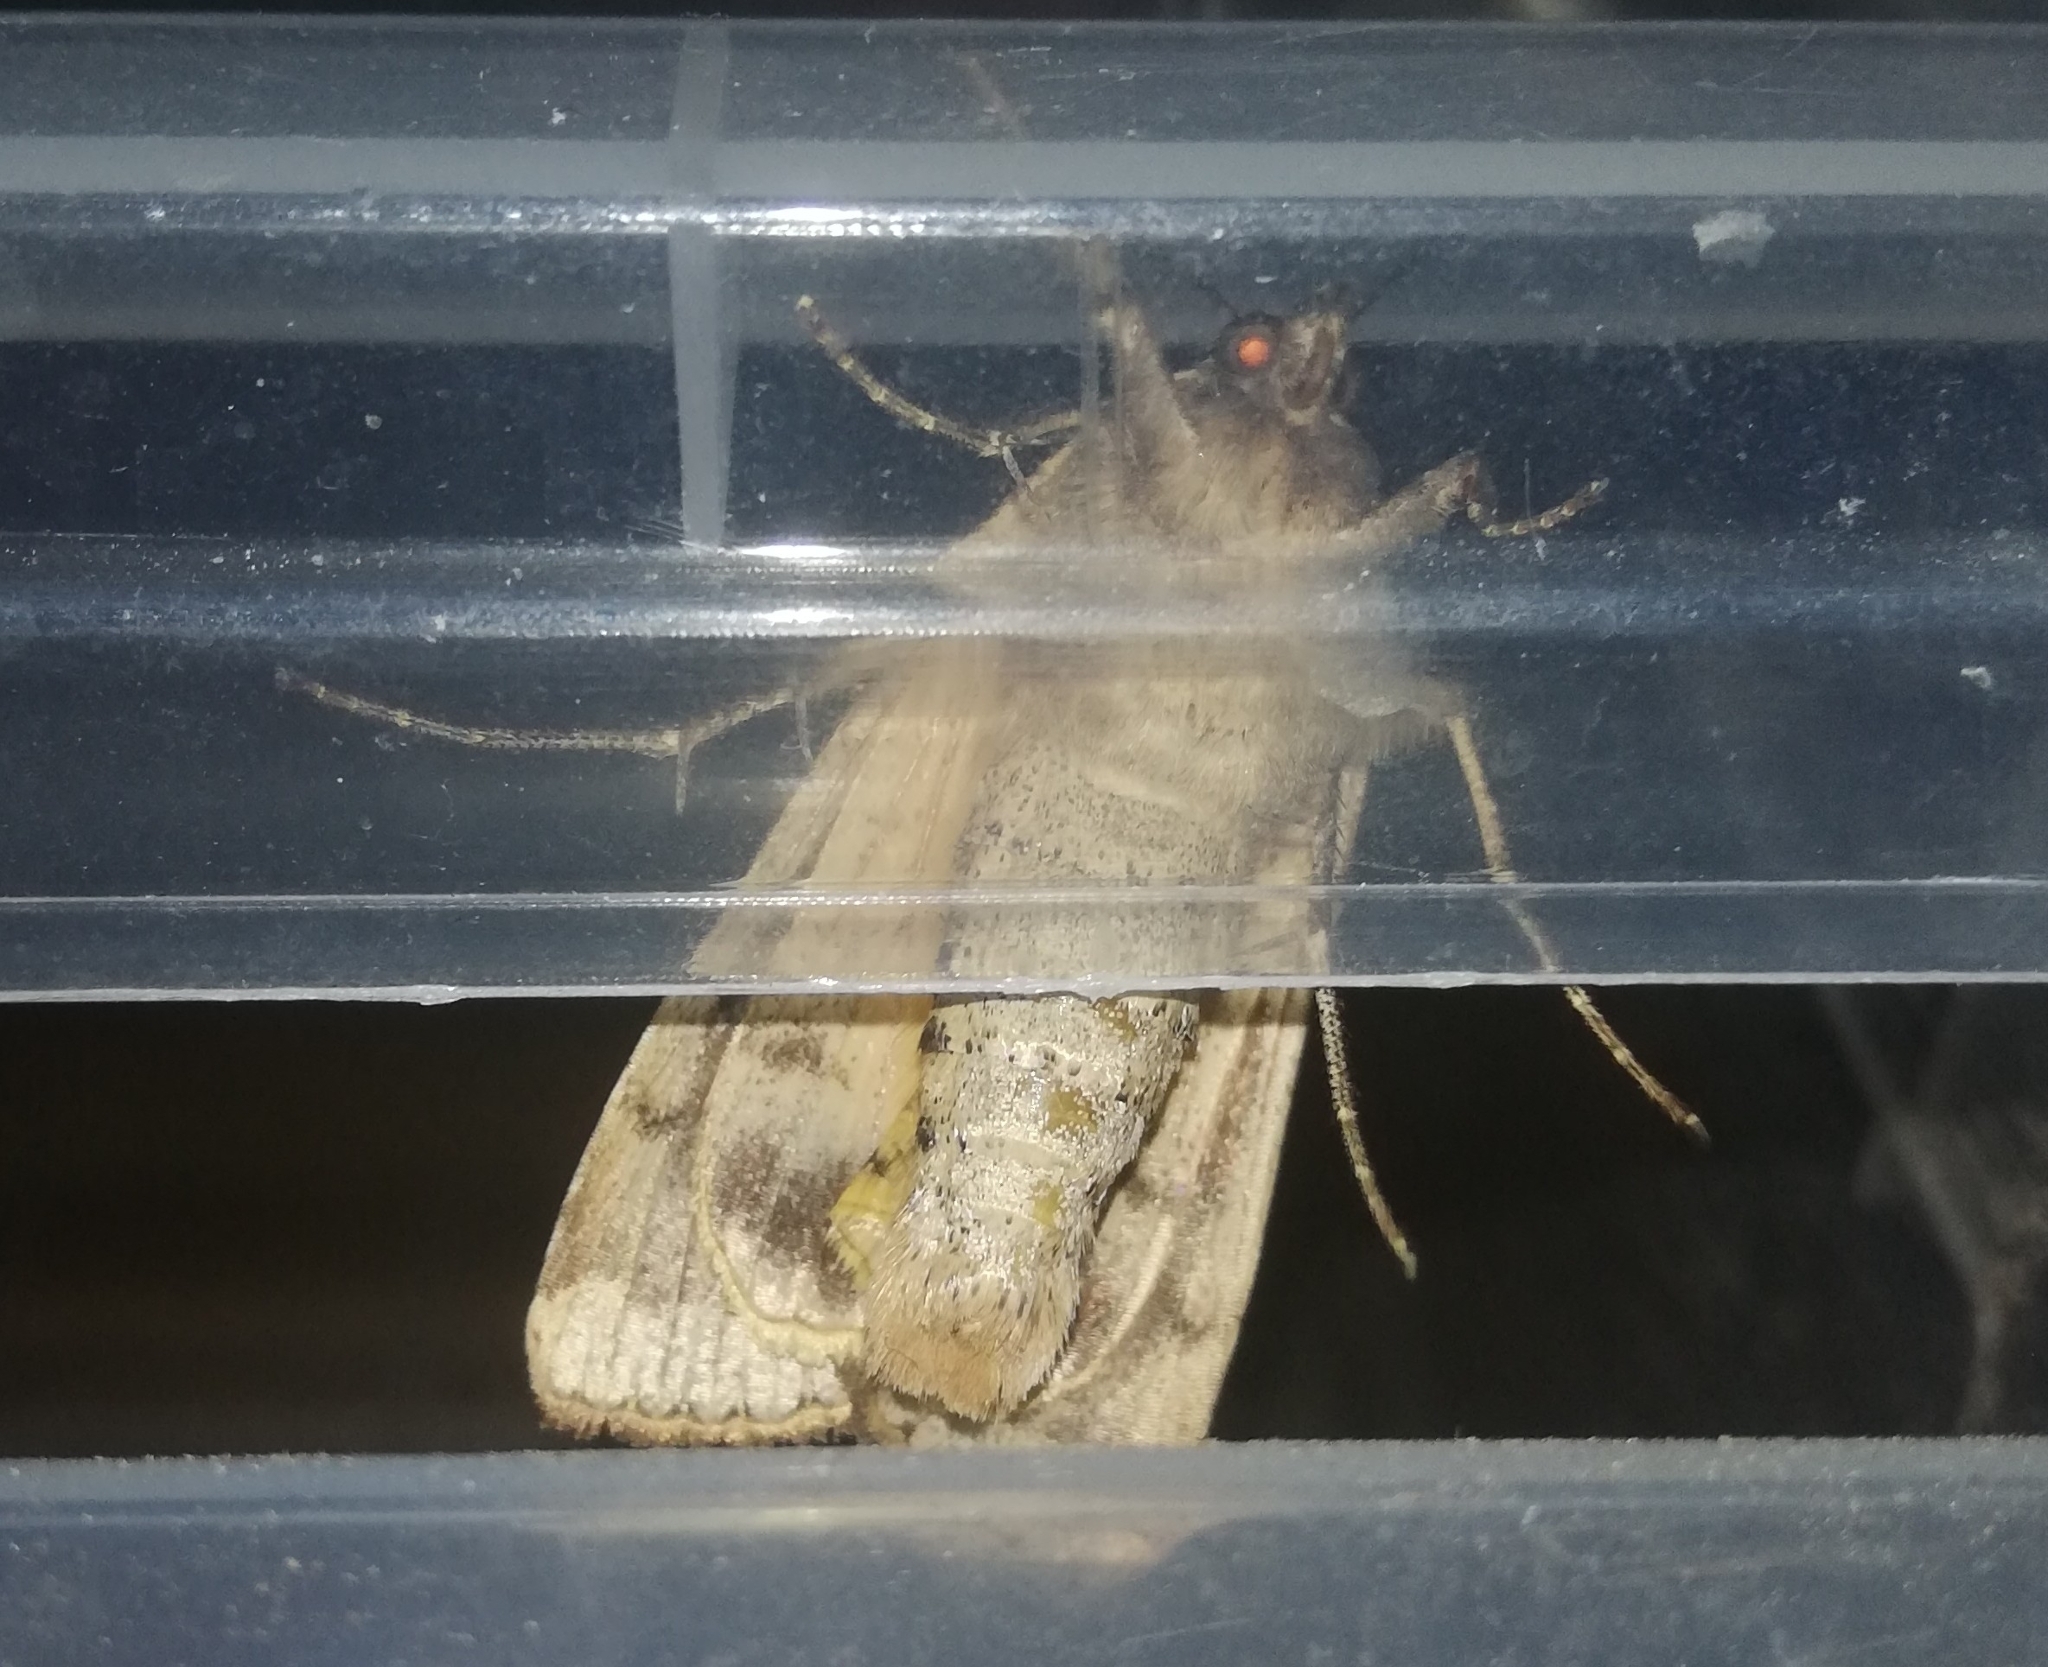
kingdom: Animalia
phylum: Arthropoda
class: Insecta
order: Lepidoptera
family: Noctuidae
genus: Noctua
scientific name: Noctua pronuba
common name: Large yellow underwing
